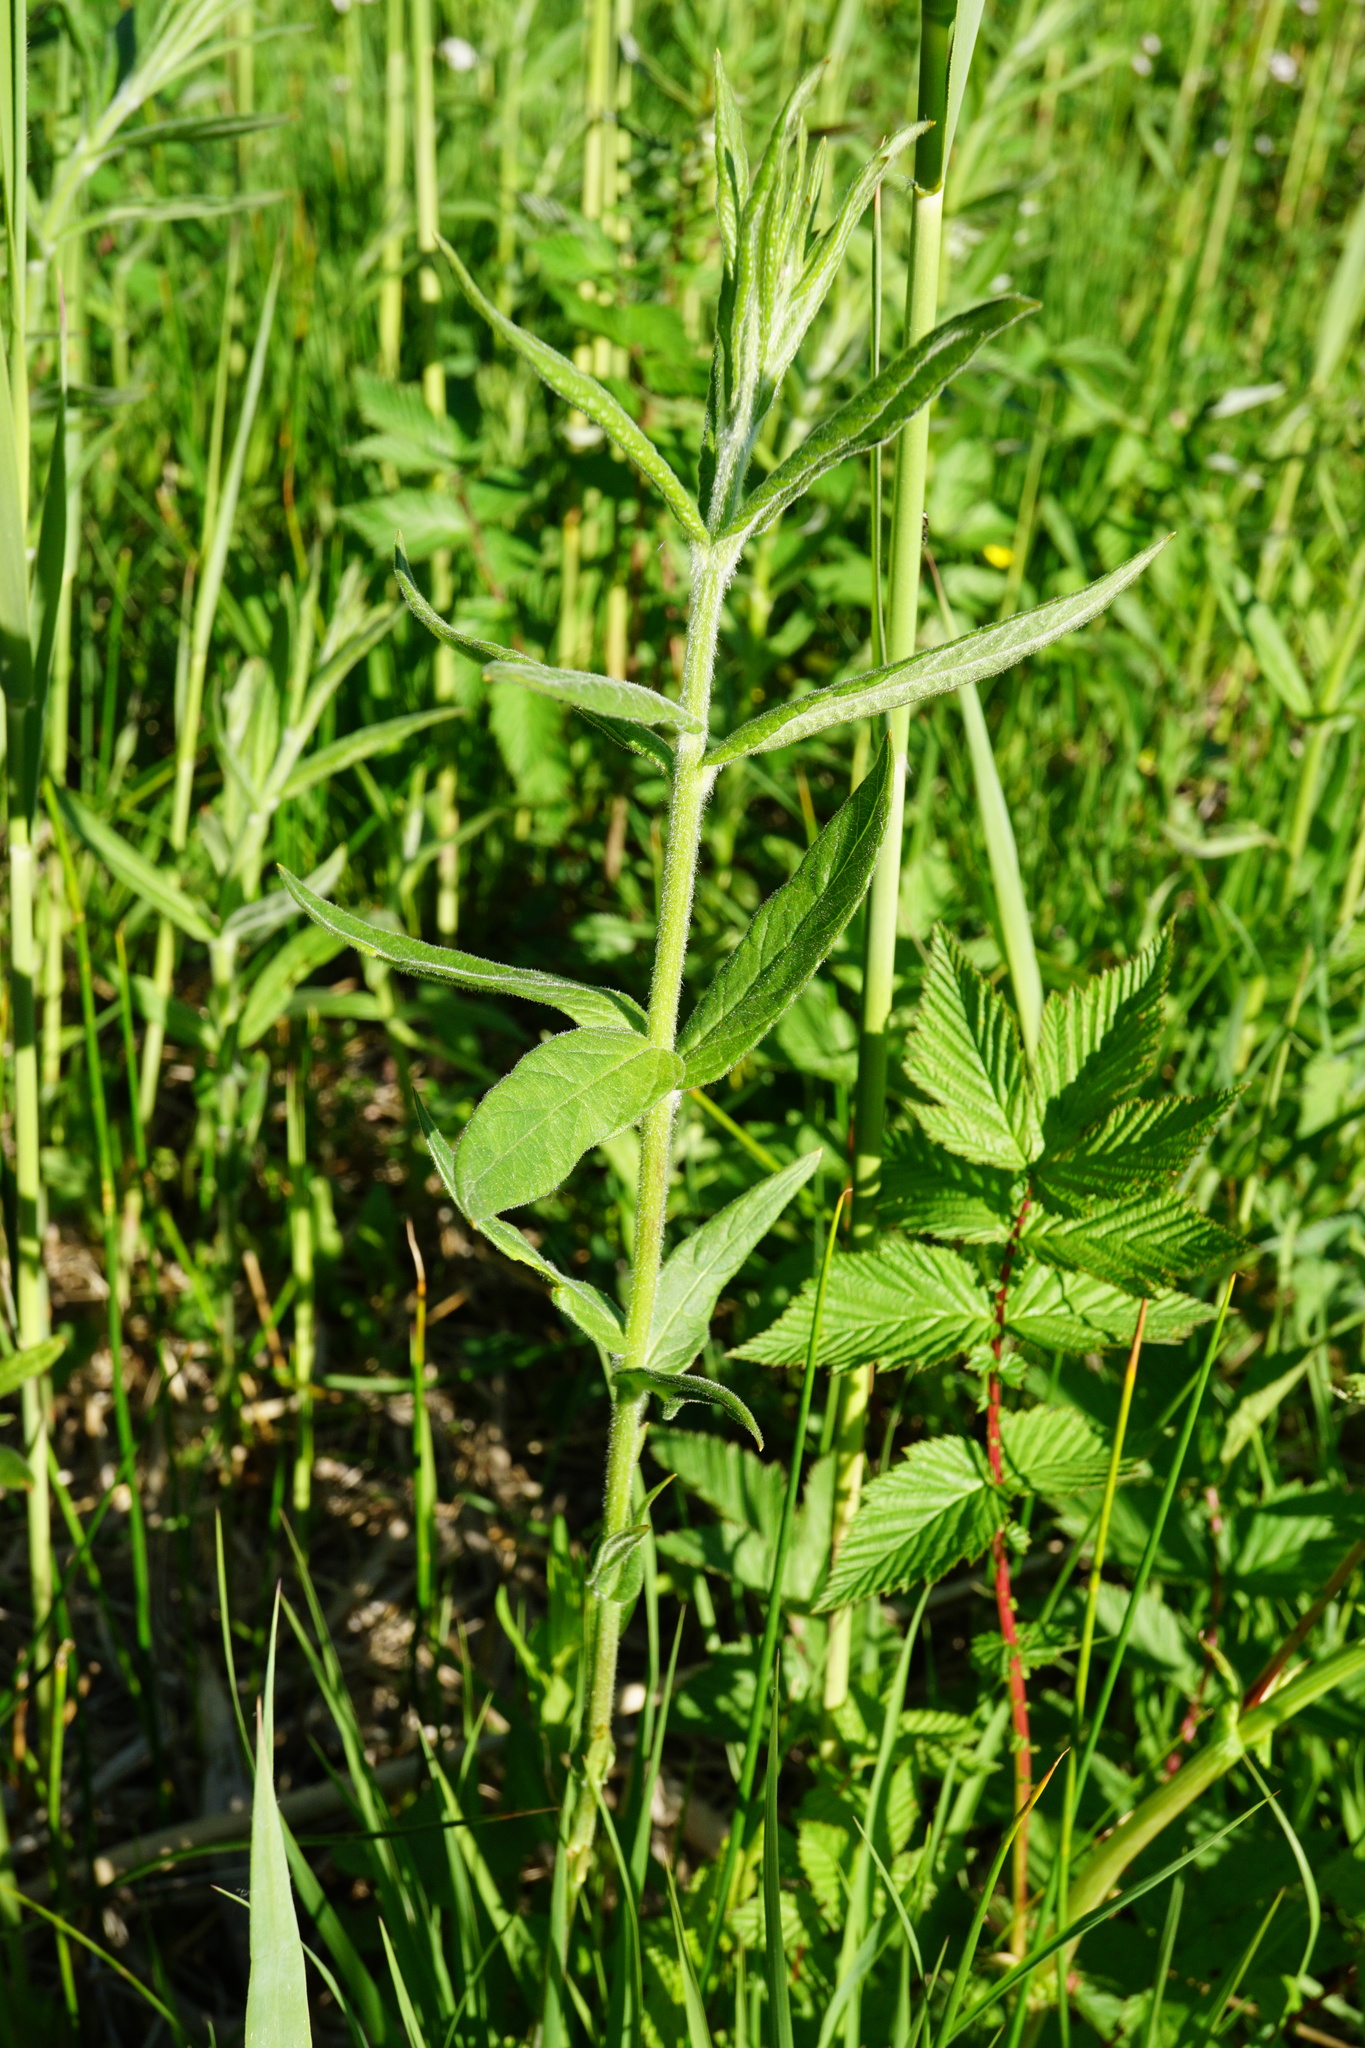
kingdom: Plantae
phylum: Tracheophyta
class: Magnoliopsida
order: Ericales
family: Primulaceae
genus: Lysimachia
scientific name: Lysimachia vulgaris
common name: Yellow loosestrife
